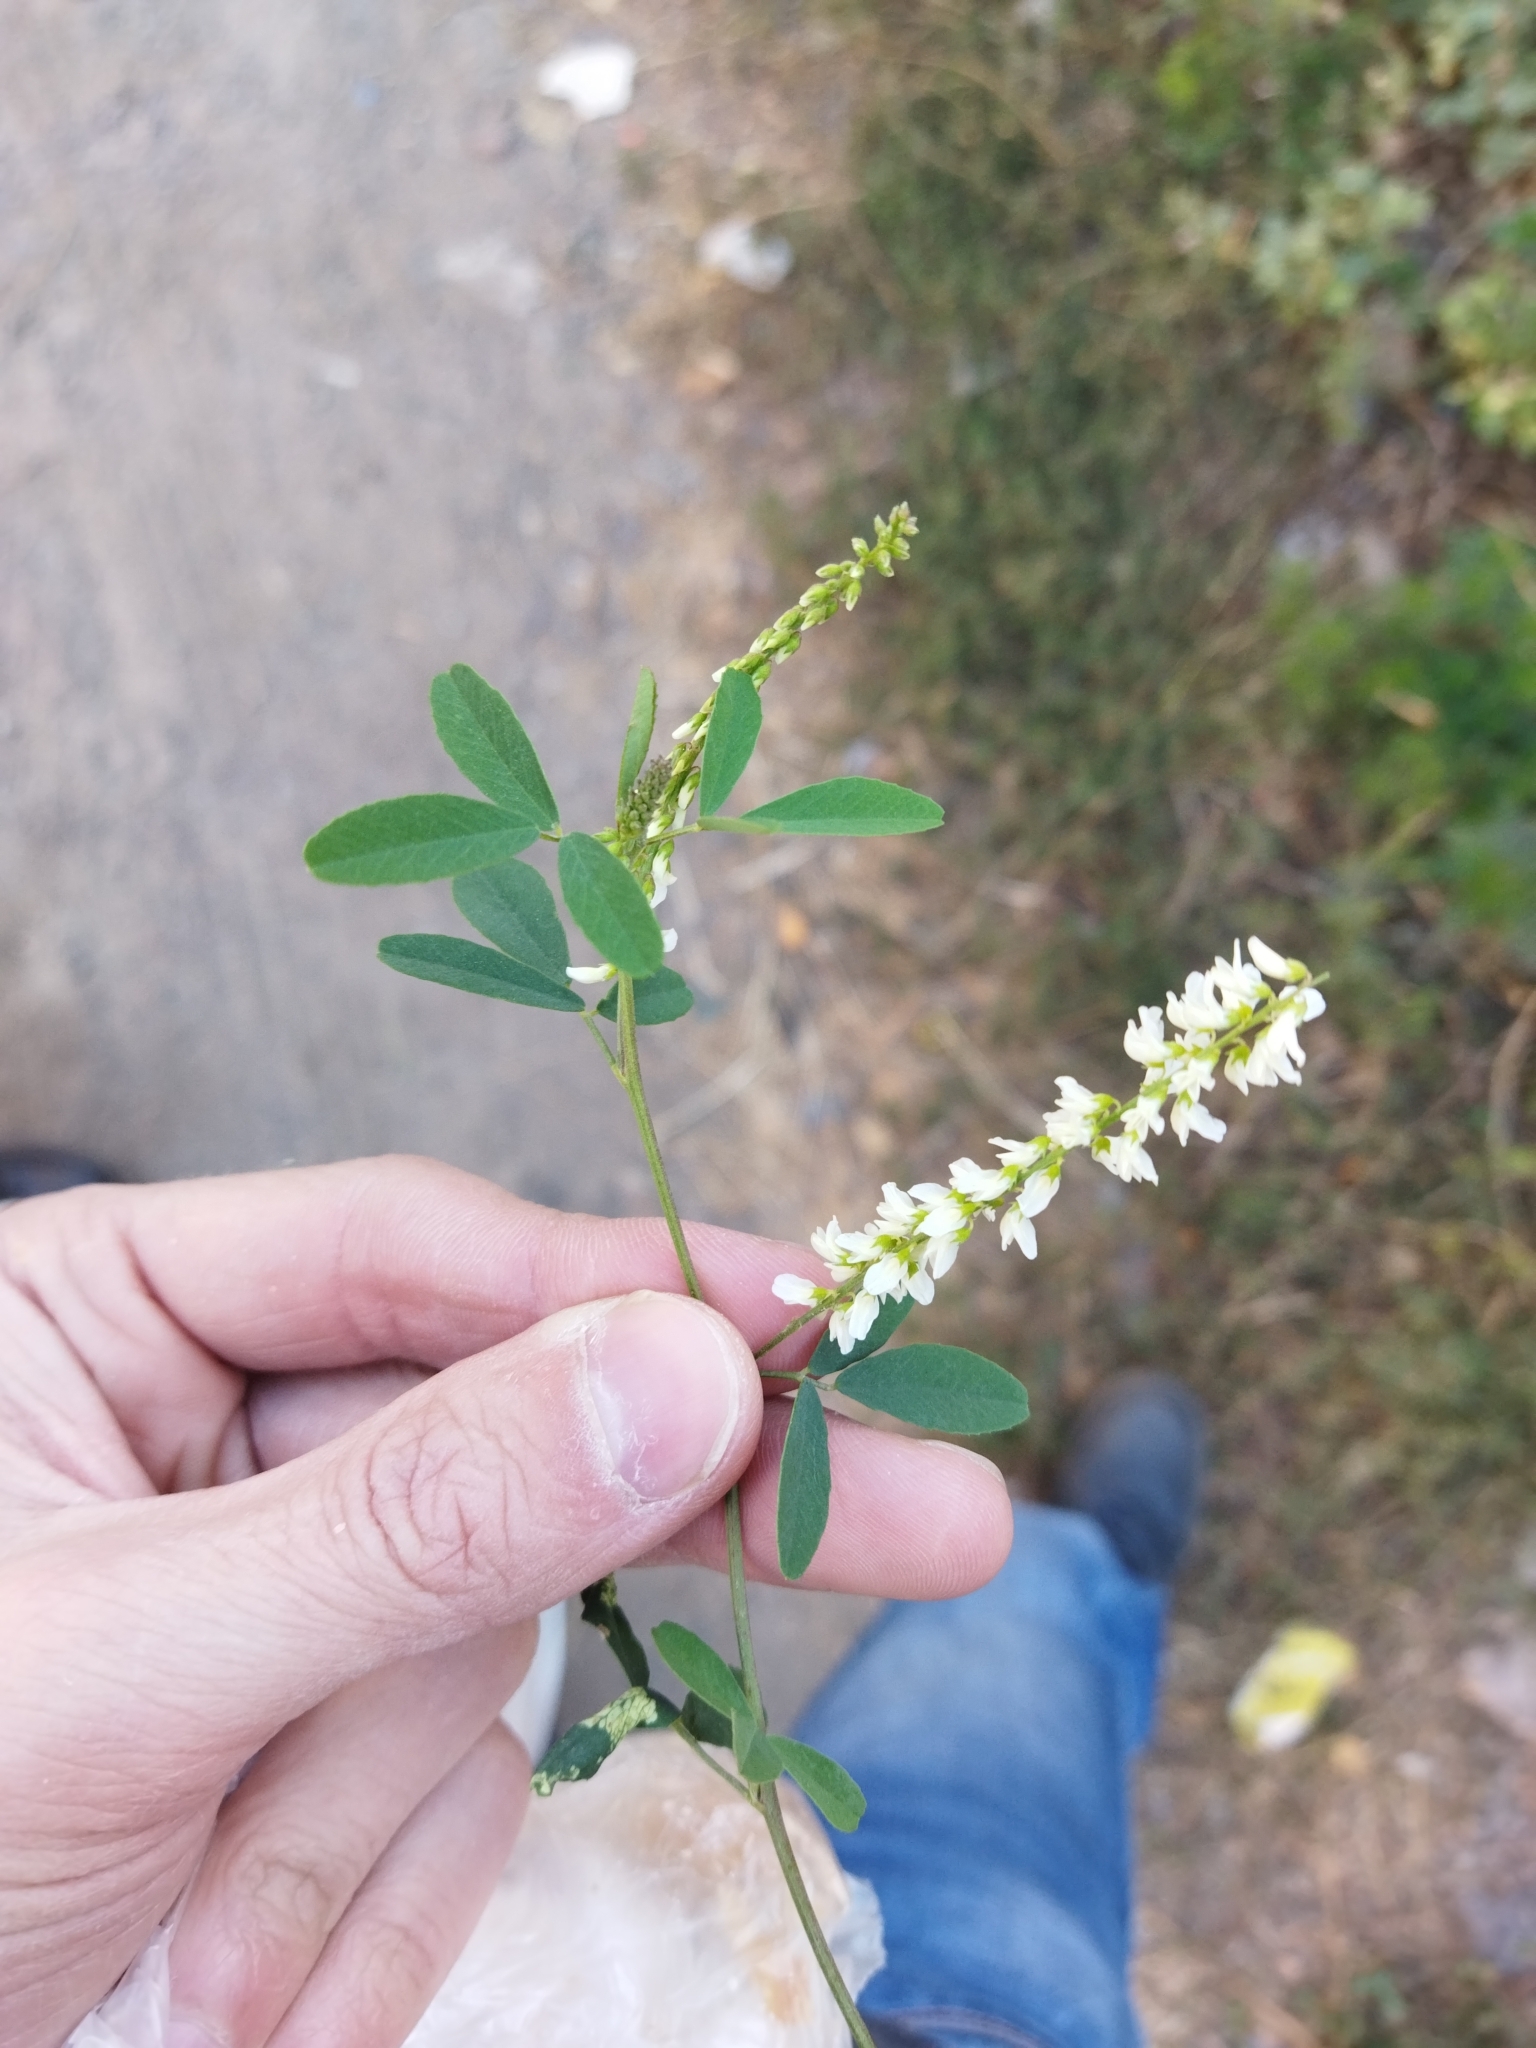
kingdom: Plantae
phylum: Tracheophyta
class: Magnoliopsida
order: Fabales
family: Fabaceae
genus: Melilotus
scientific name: Melilotus albus
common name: White melilot
